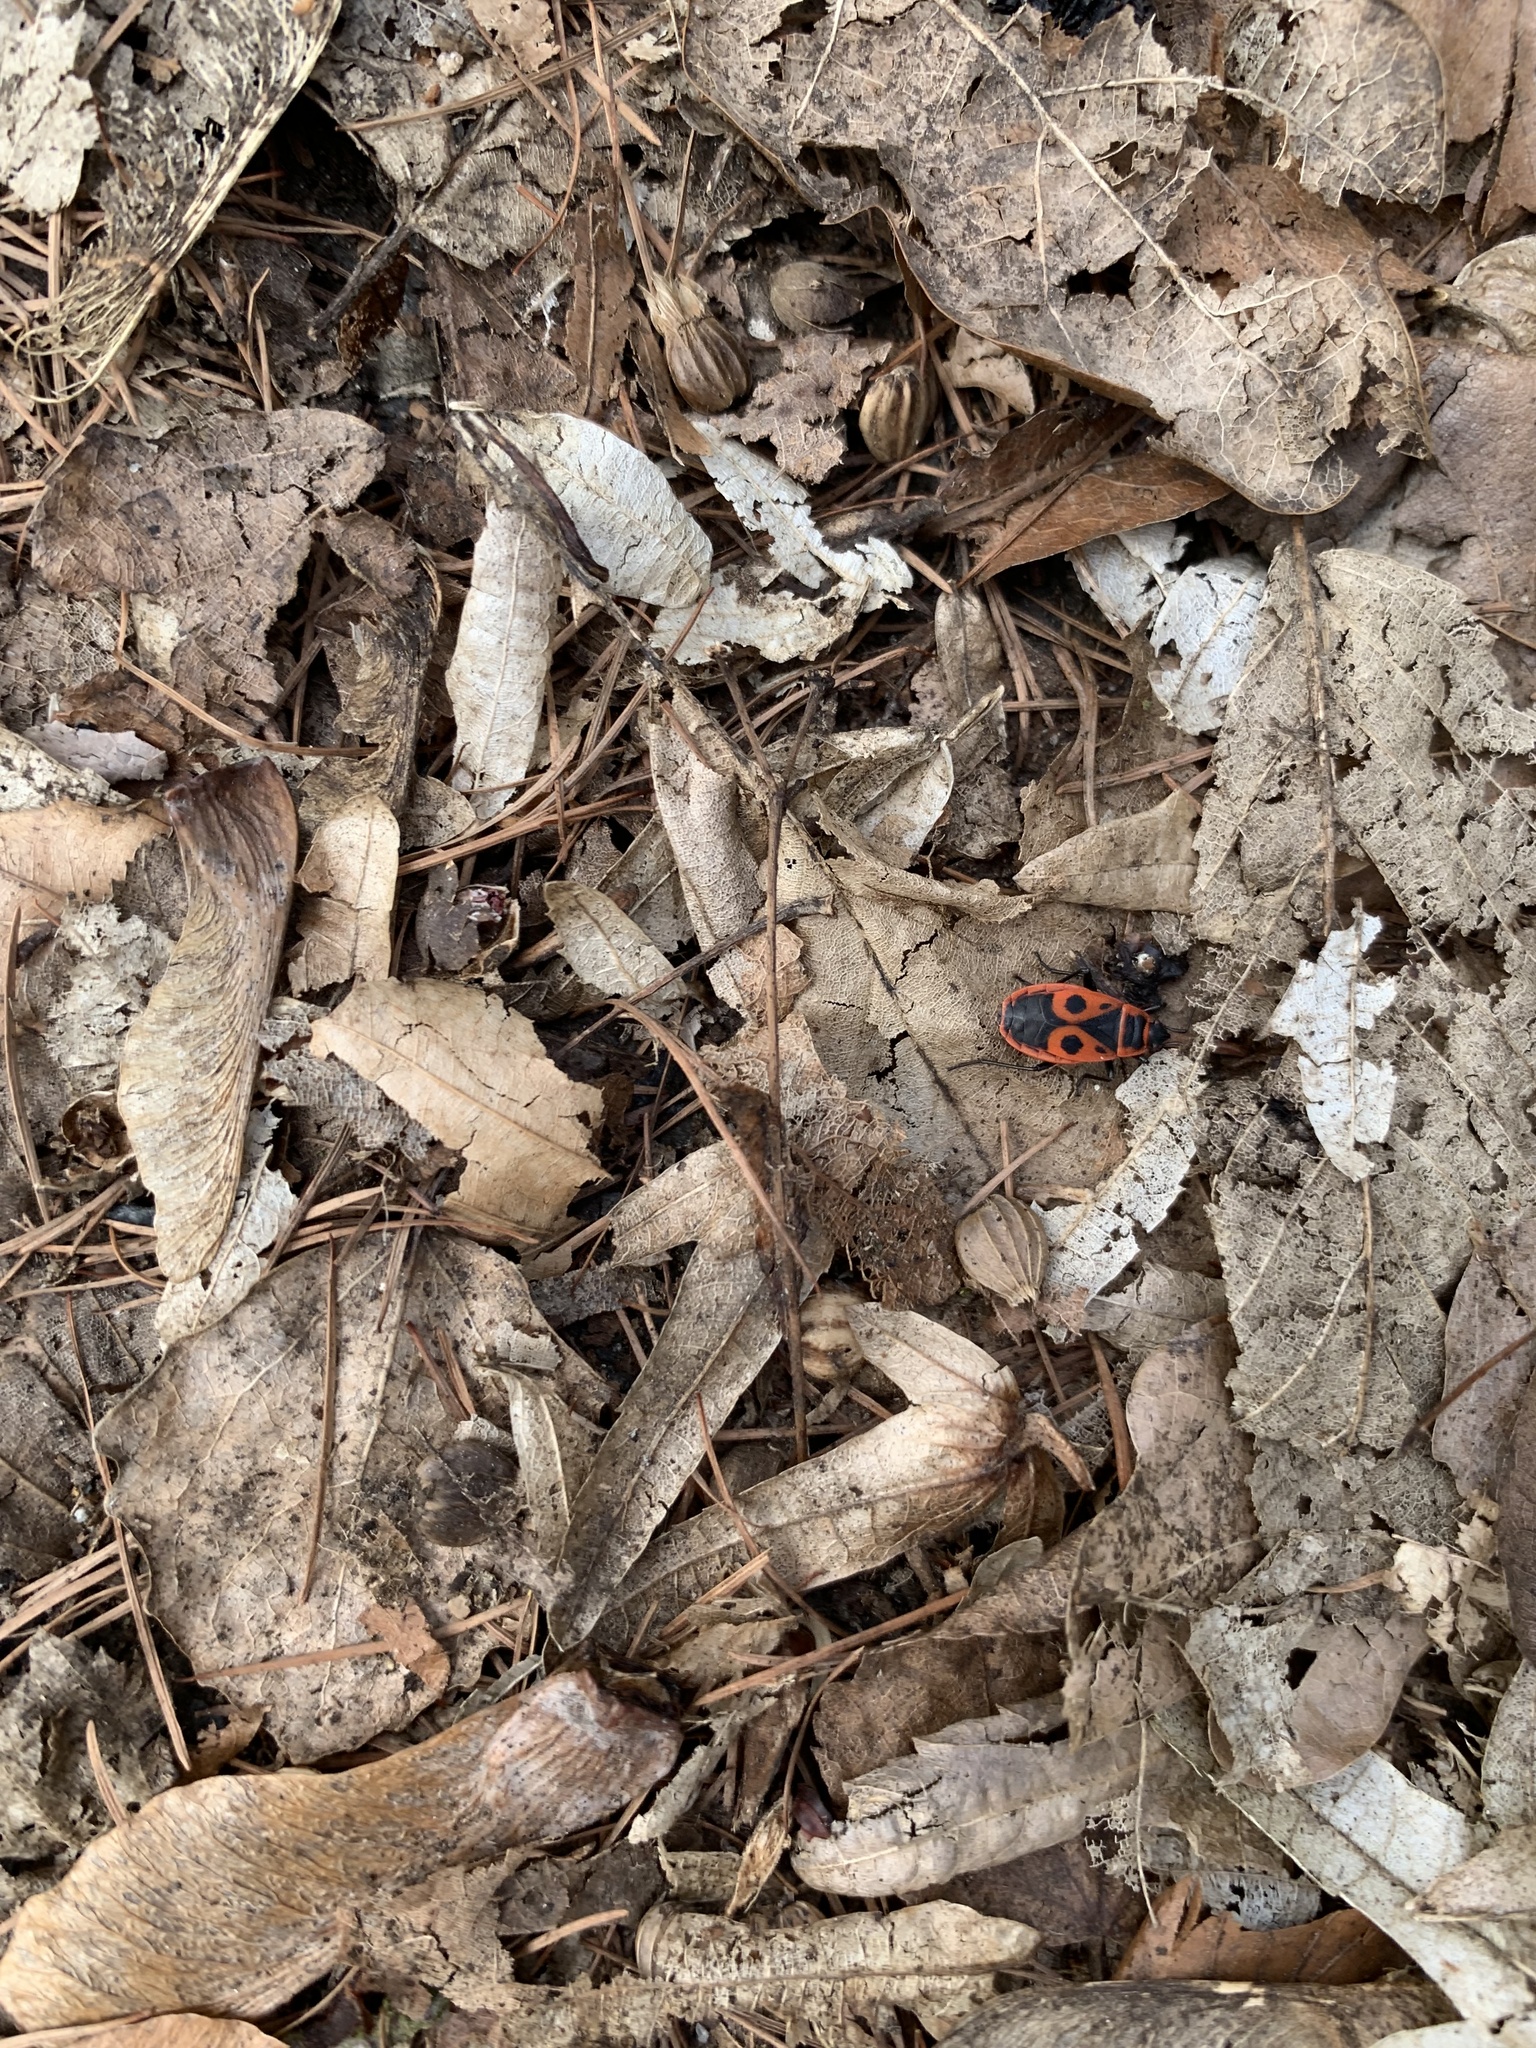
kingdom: Animalia
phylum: Arthropoda
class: Insecta
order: Hemiptera
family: Pyrrhocoridae
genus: Pyrrhocoris
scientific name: Pyrrhocoris apterus
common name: Firebug
